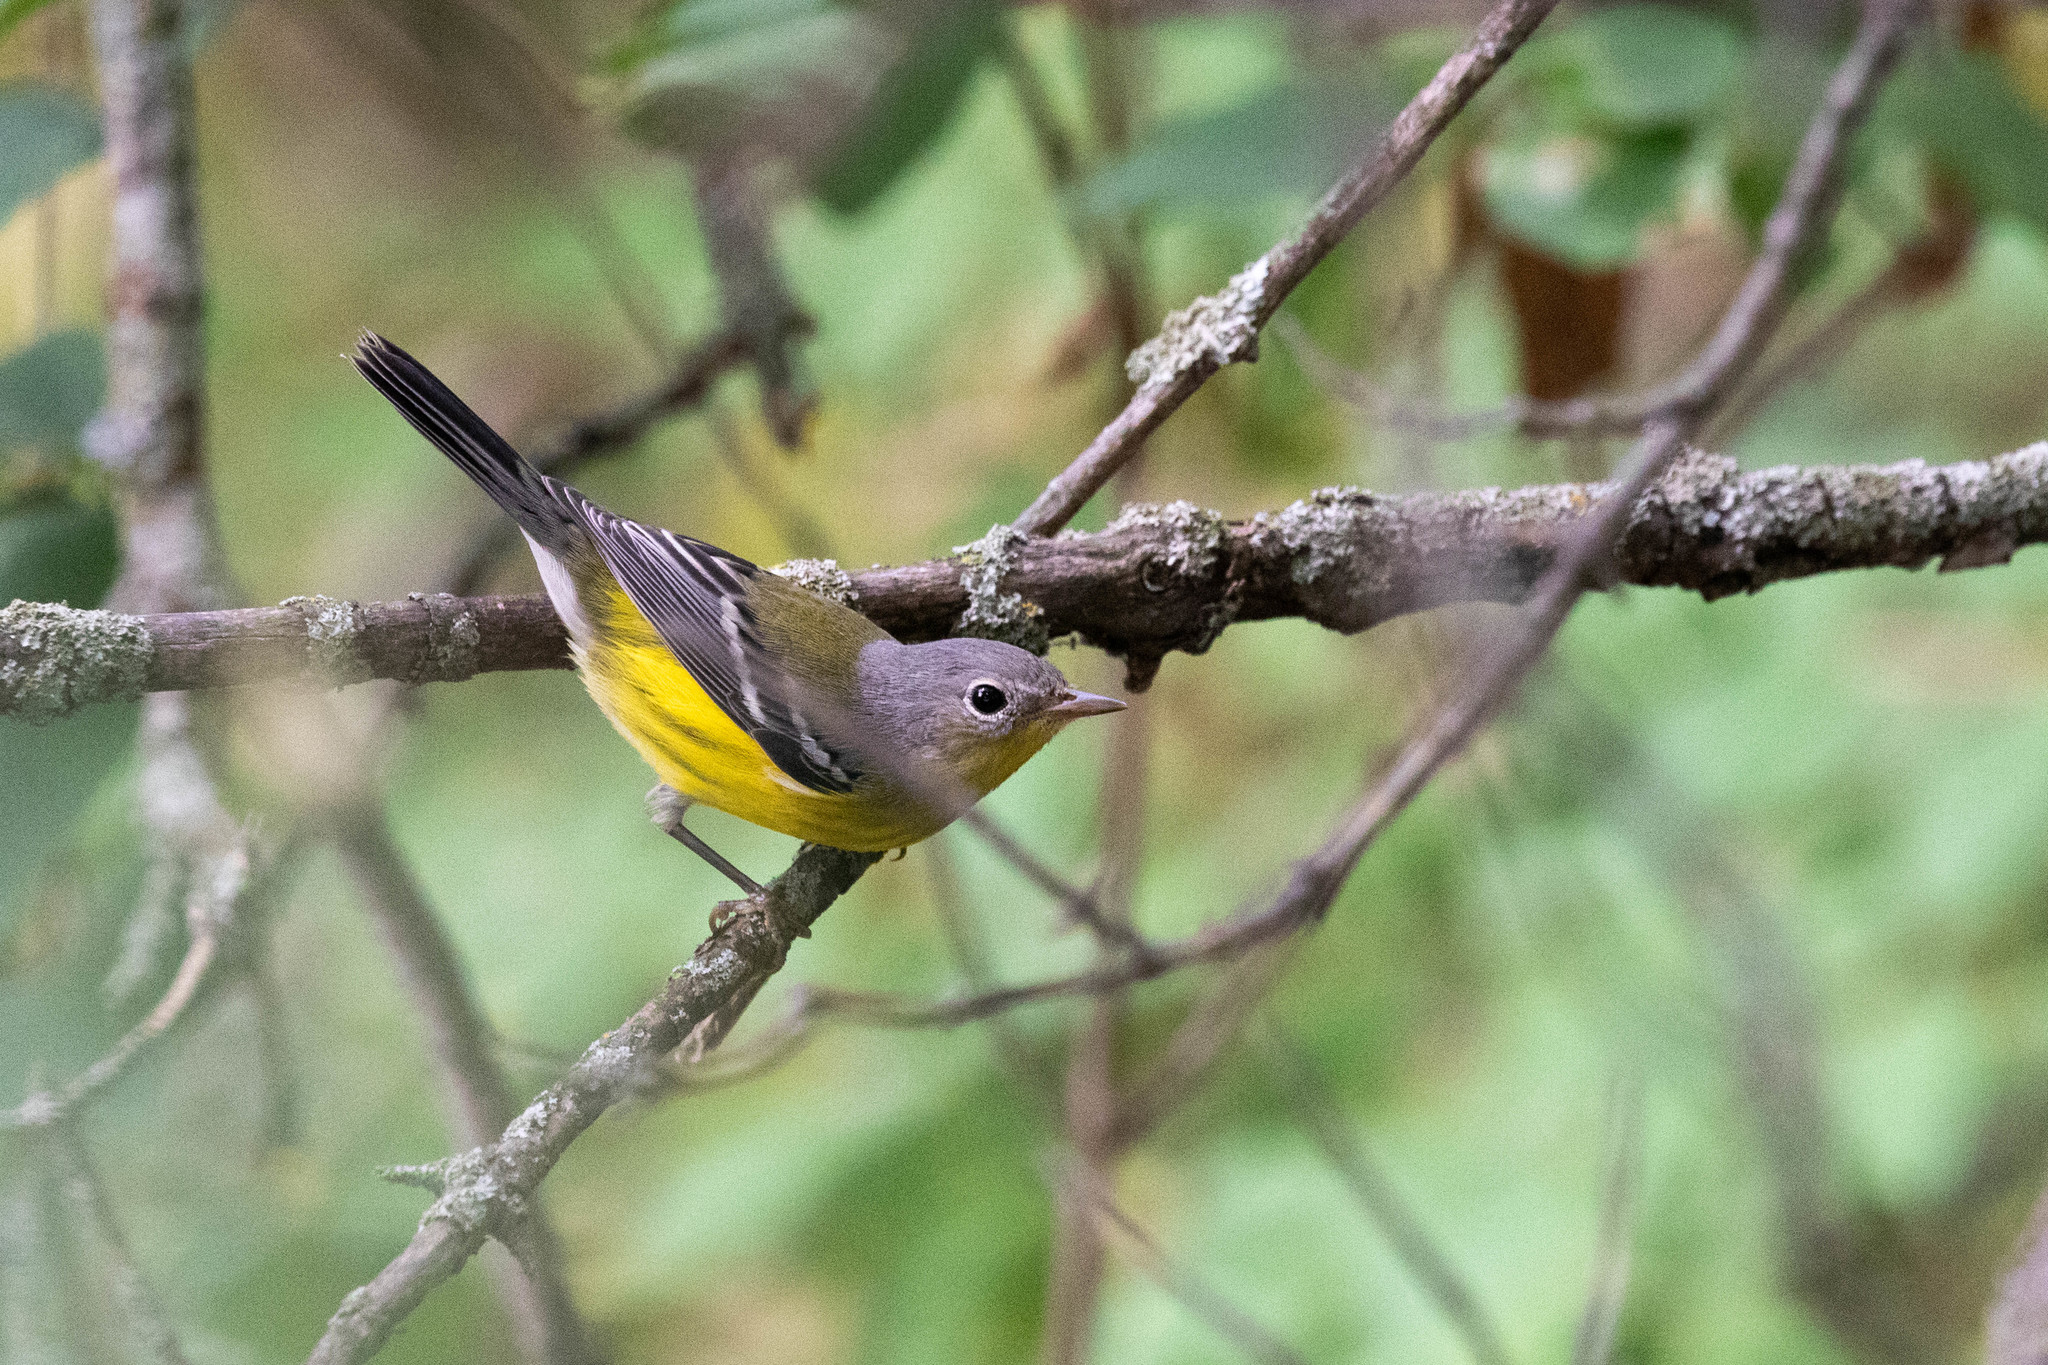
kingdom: Animalia
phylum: Chordata
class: Aves
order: Passeriformes
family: Parulidae
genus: Setophaga
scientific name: Setophaga magnolia
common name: Magnolia warbler
